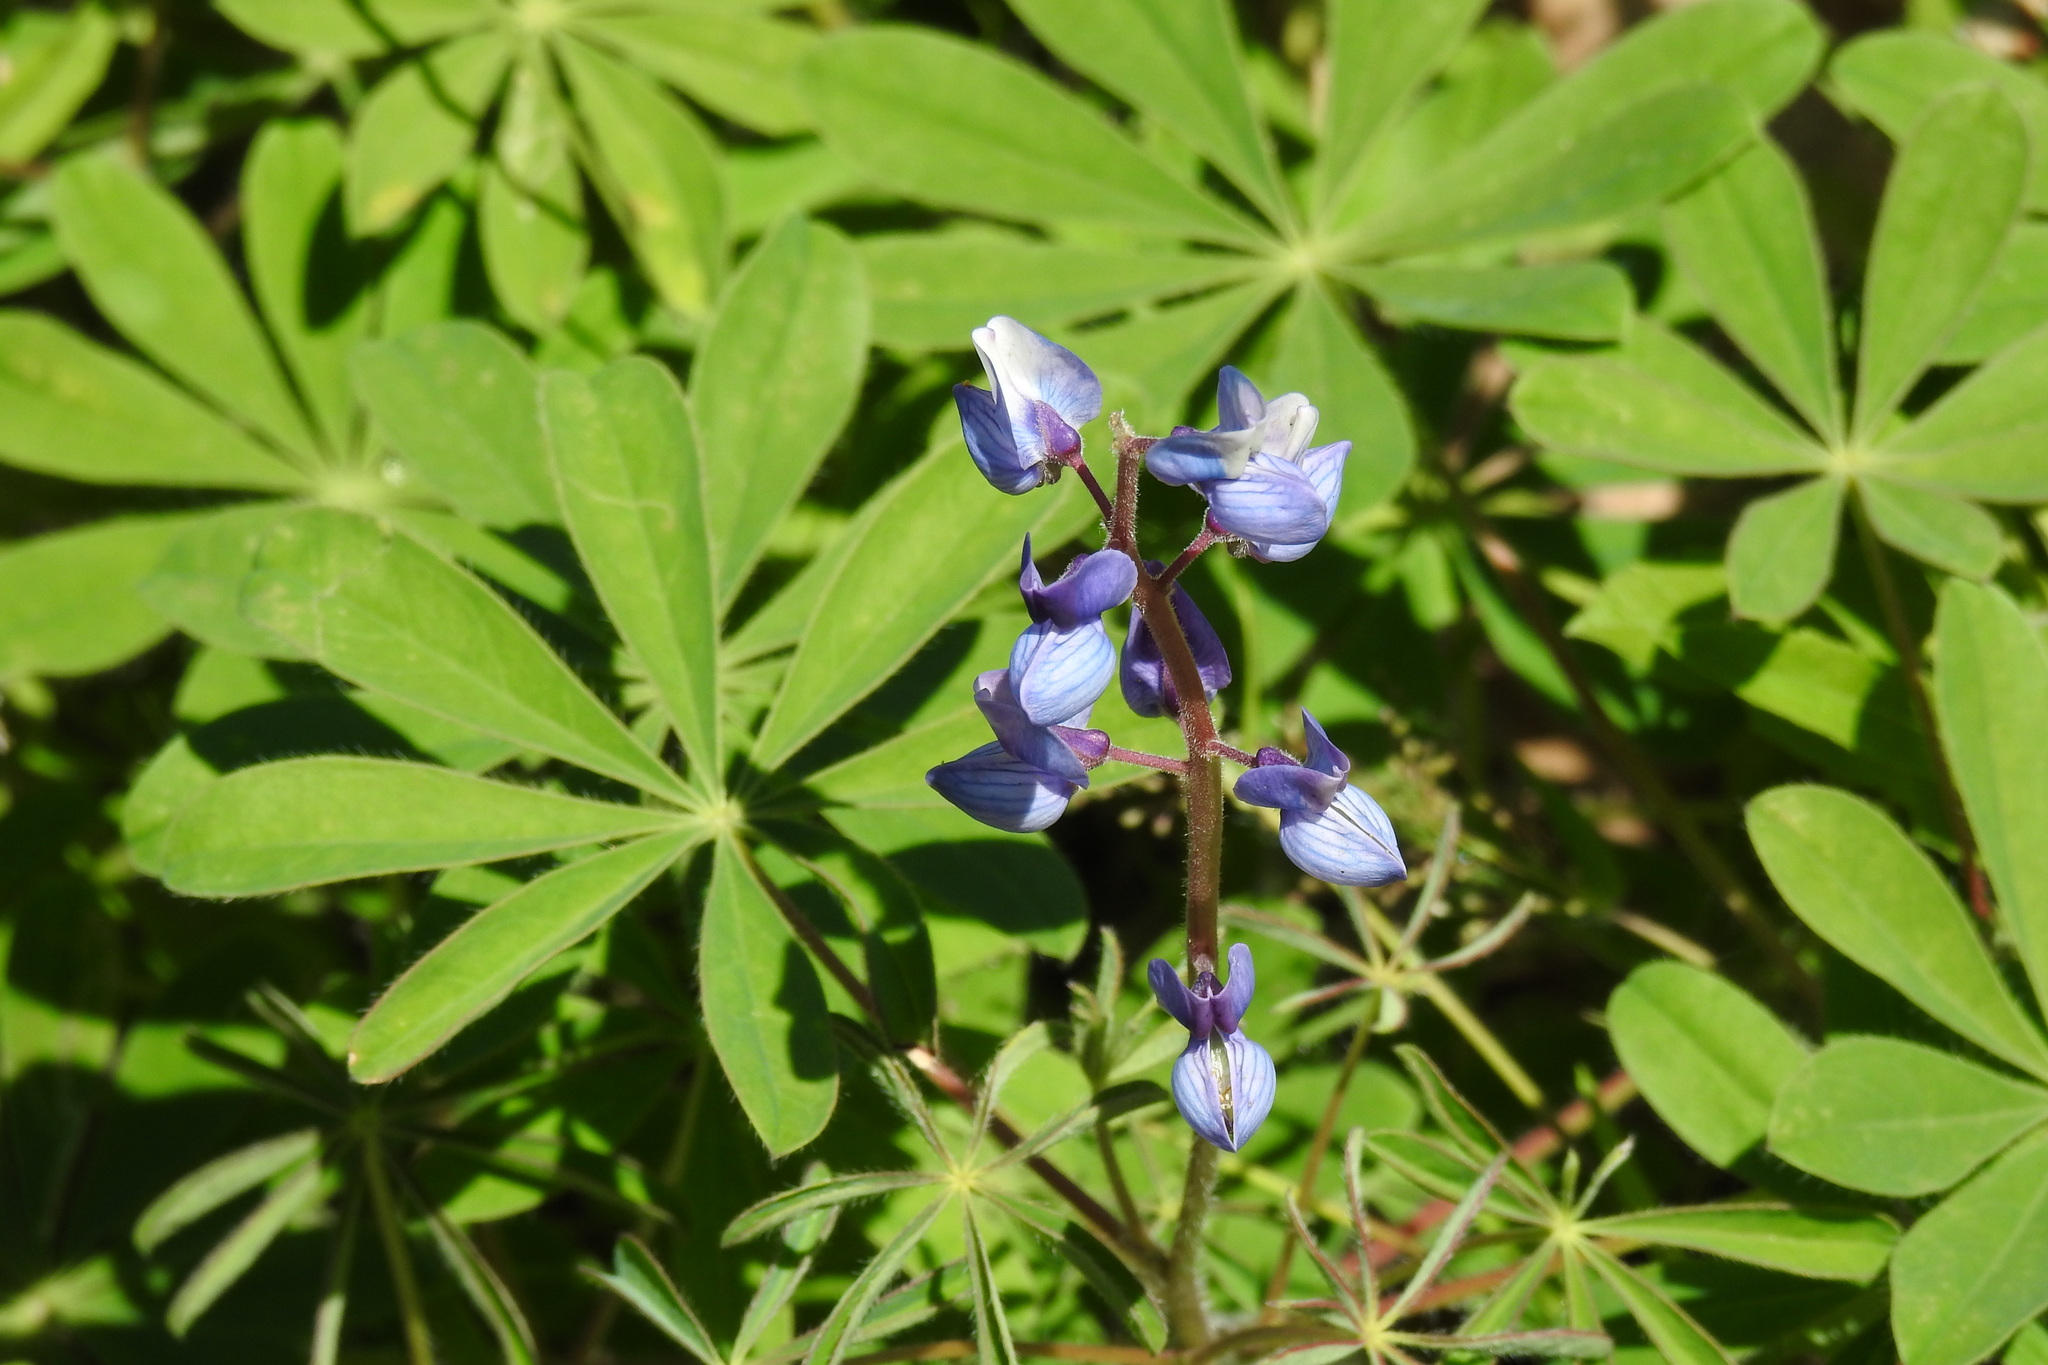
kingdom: Plantae
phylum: Tracheophyta
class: Magnoliopsida
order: Fabales
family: Fabaceae
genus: Lupinus
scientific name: Lupinus perennis
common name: Sundial lupine
